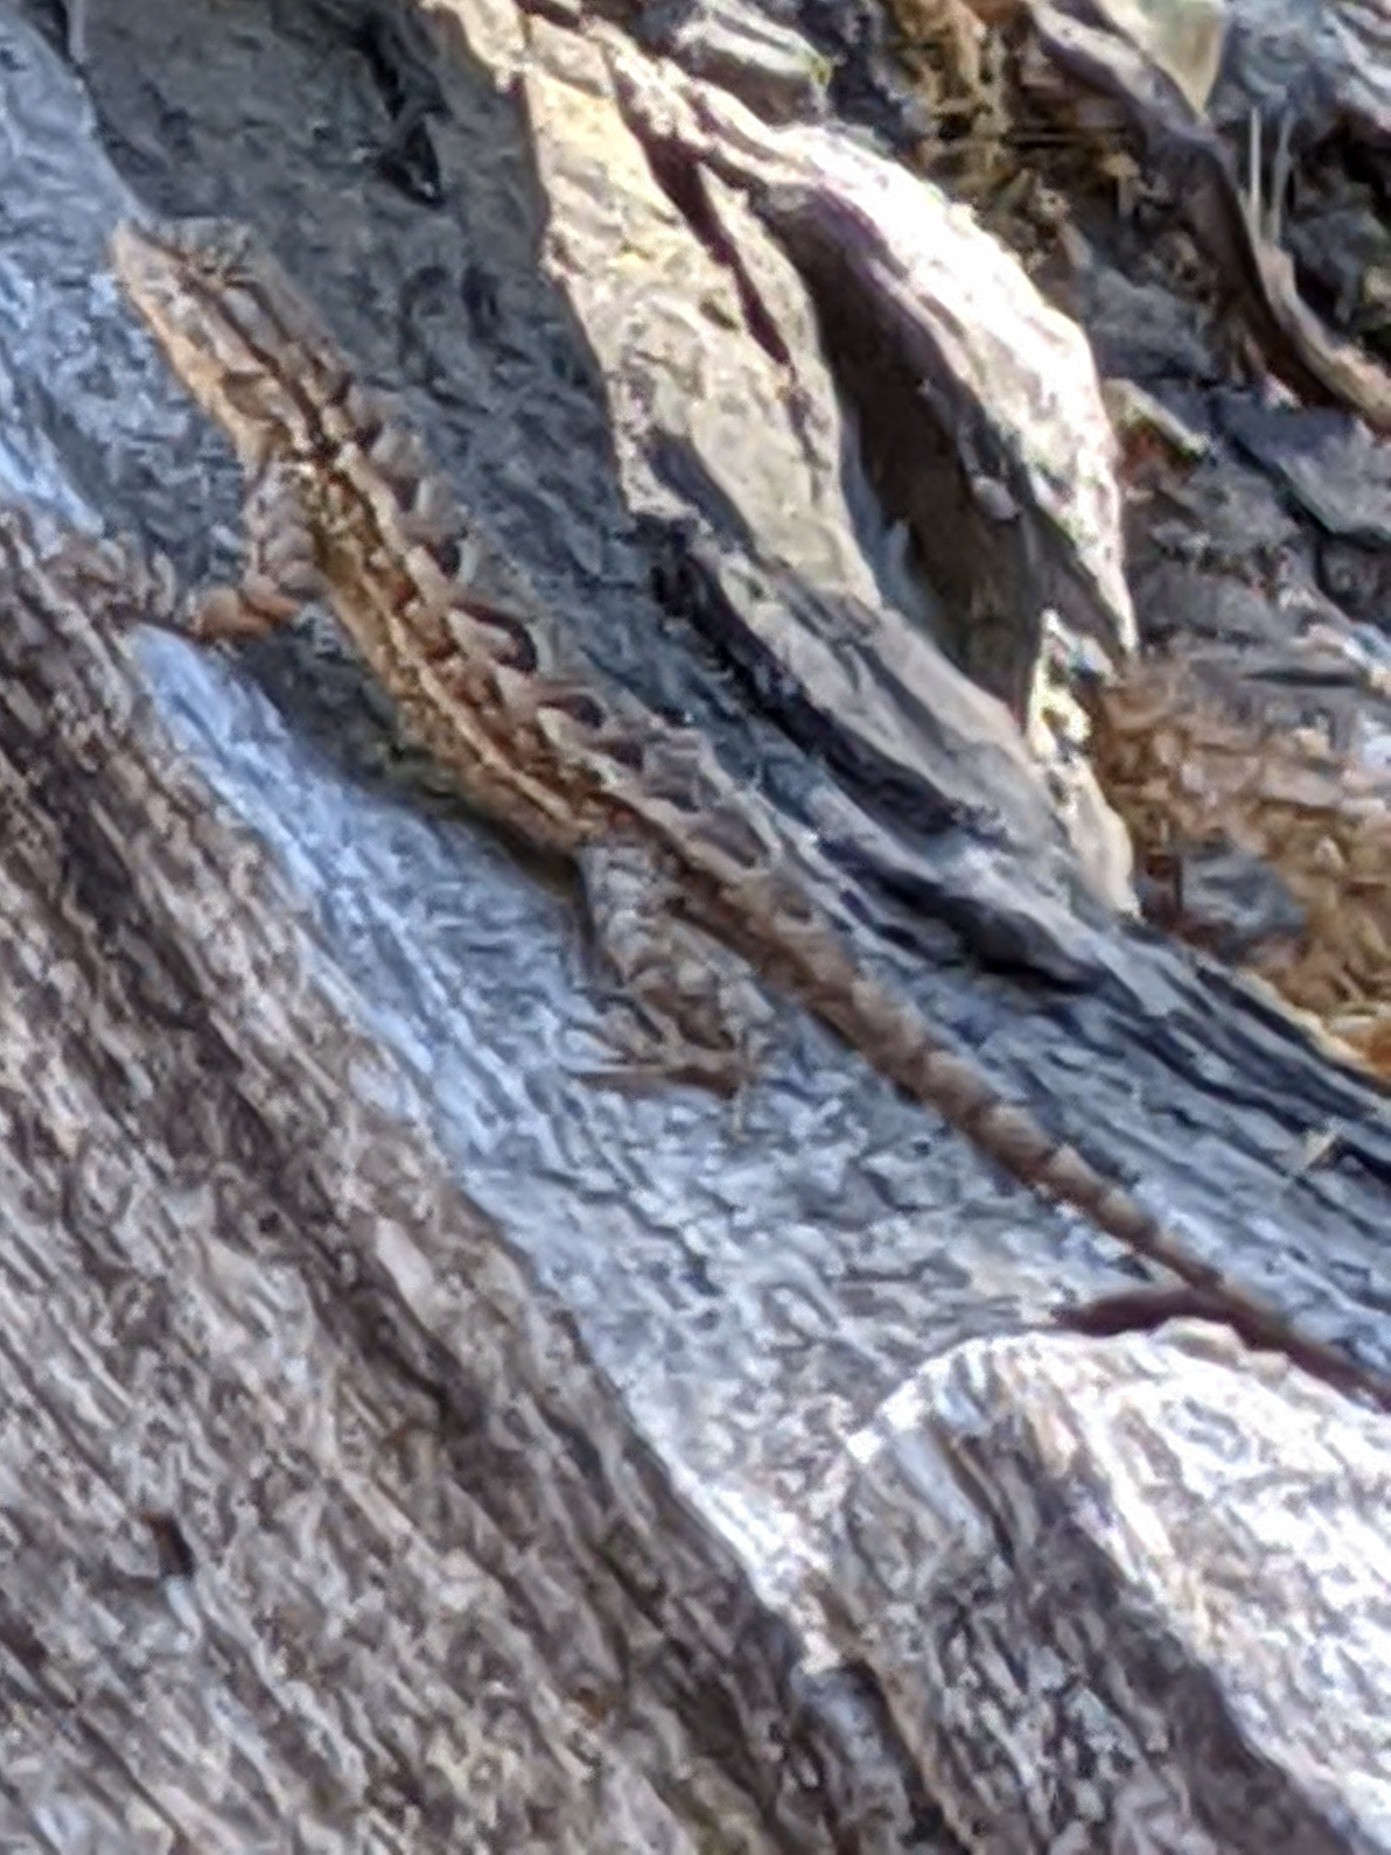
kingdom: Animalia
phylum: Chordata
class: Squamata
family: Phrynosomatidae
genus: Sceloporus
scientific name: Sceloporus occidentalis
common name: Western fence lizard
